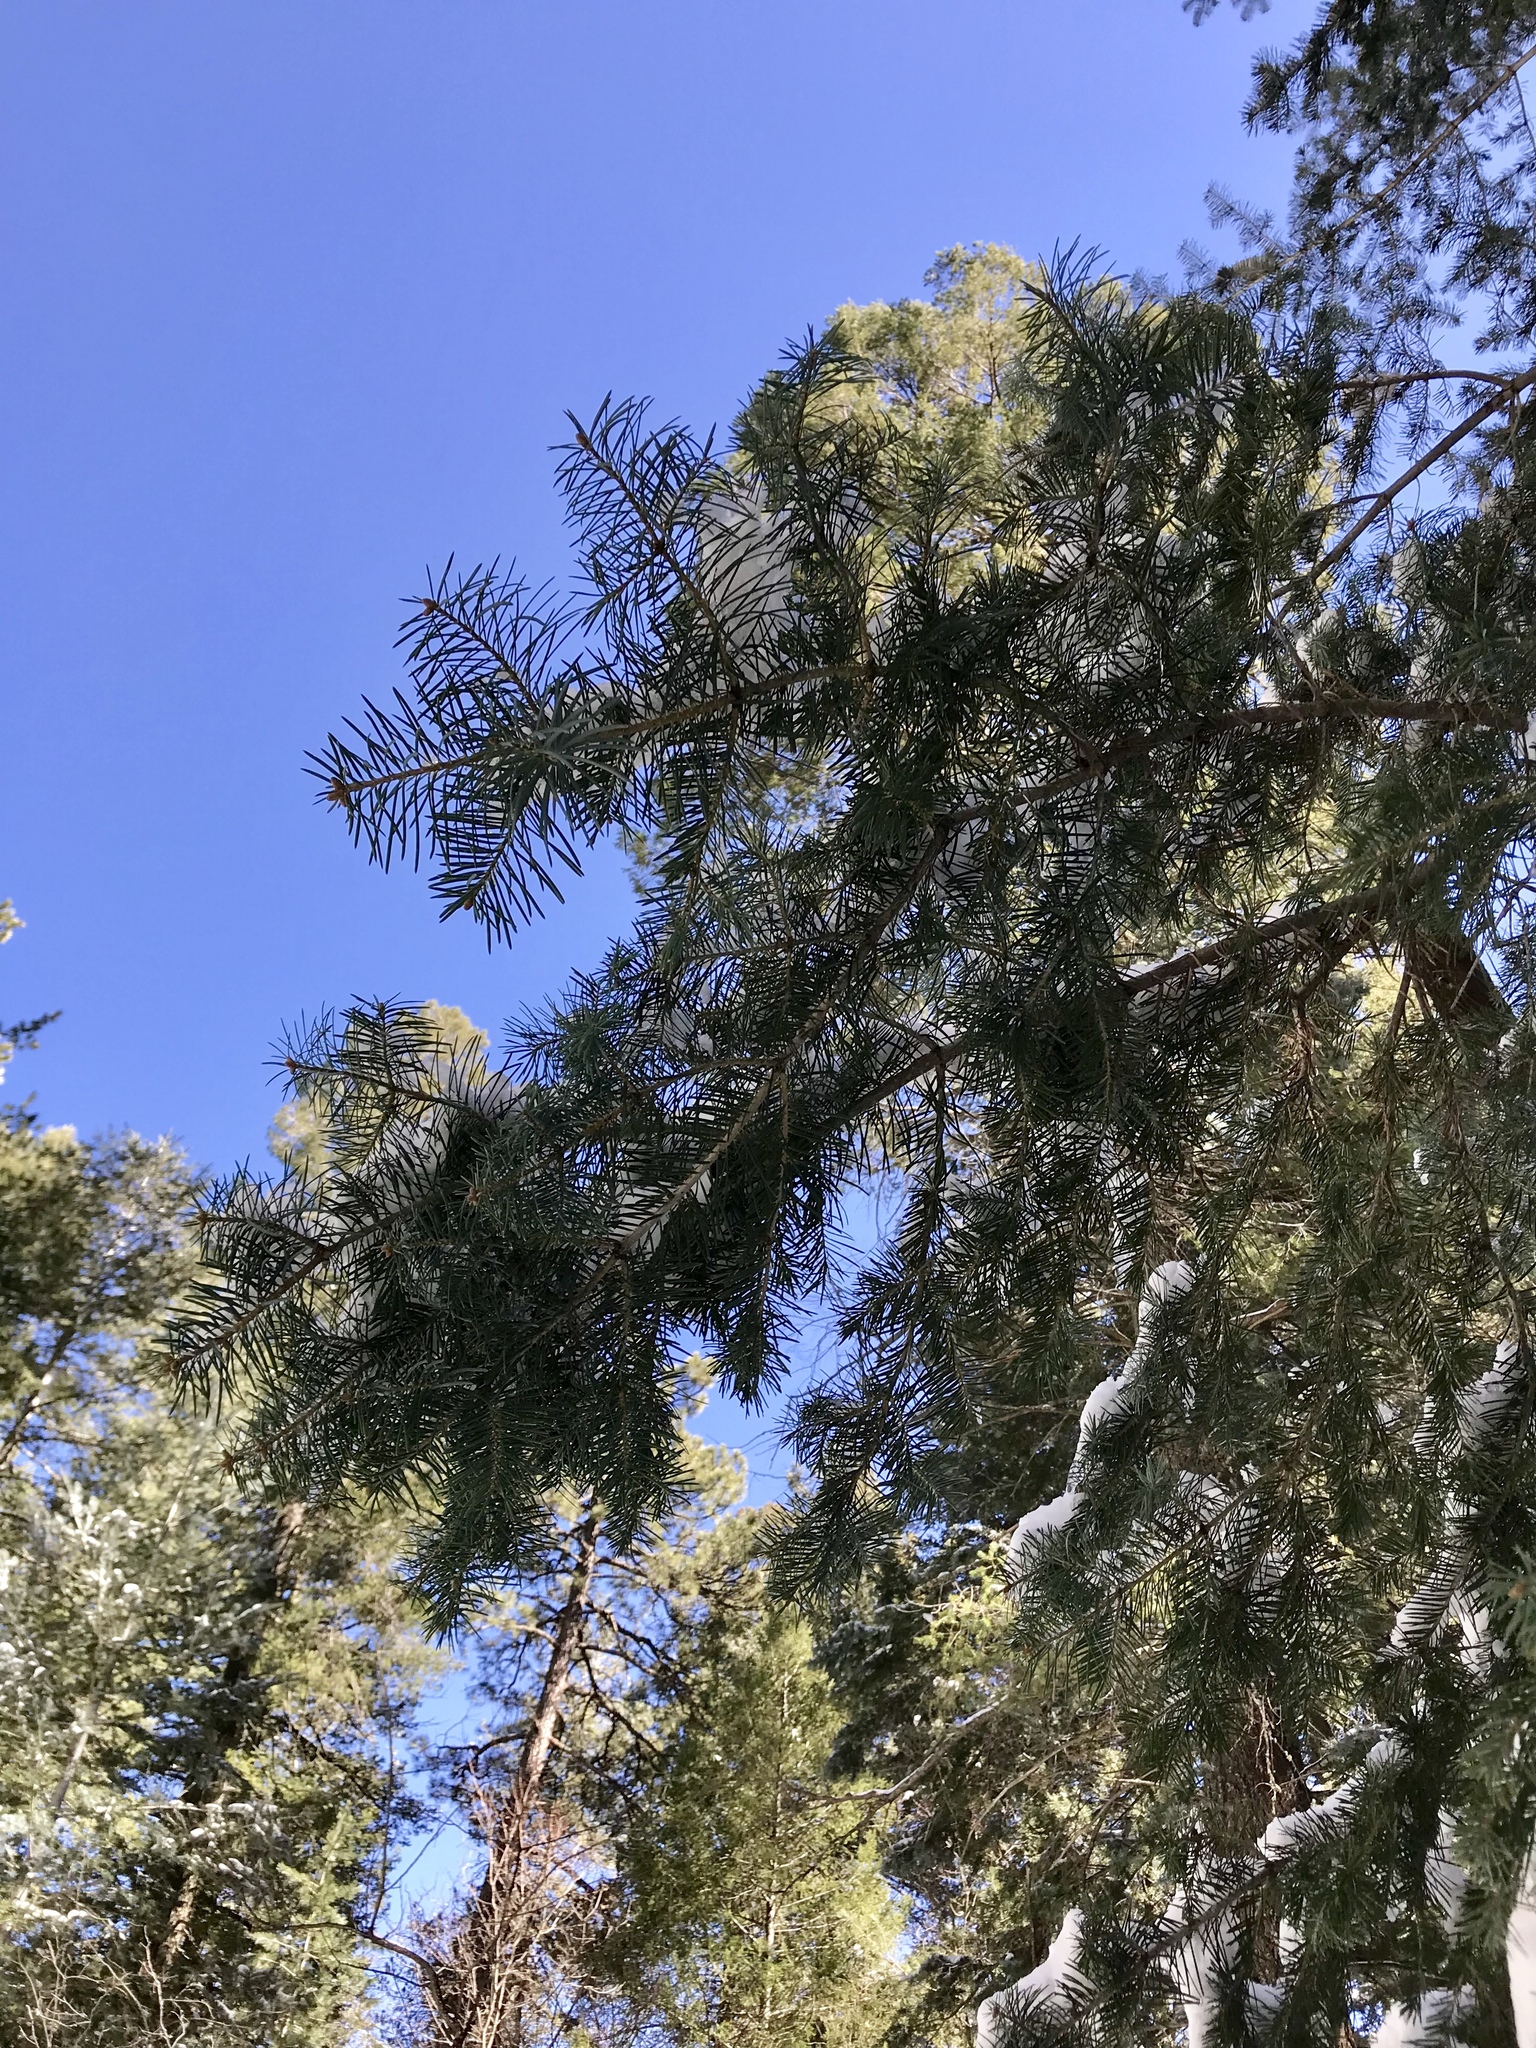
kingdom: Plantae
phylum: Tracheophyta
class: Pinopsida
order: Pinales
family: Pinaceae
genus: Abies
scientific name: Abies concolor
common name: Colorado fir
